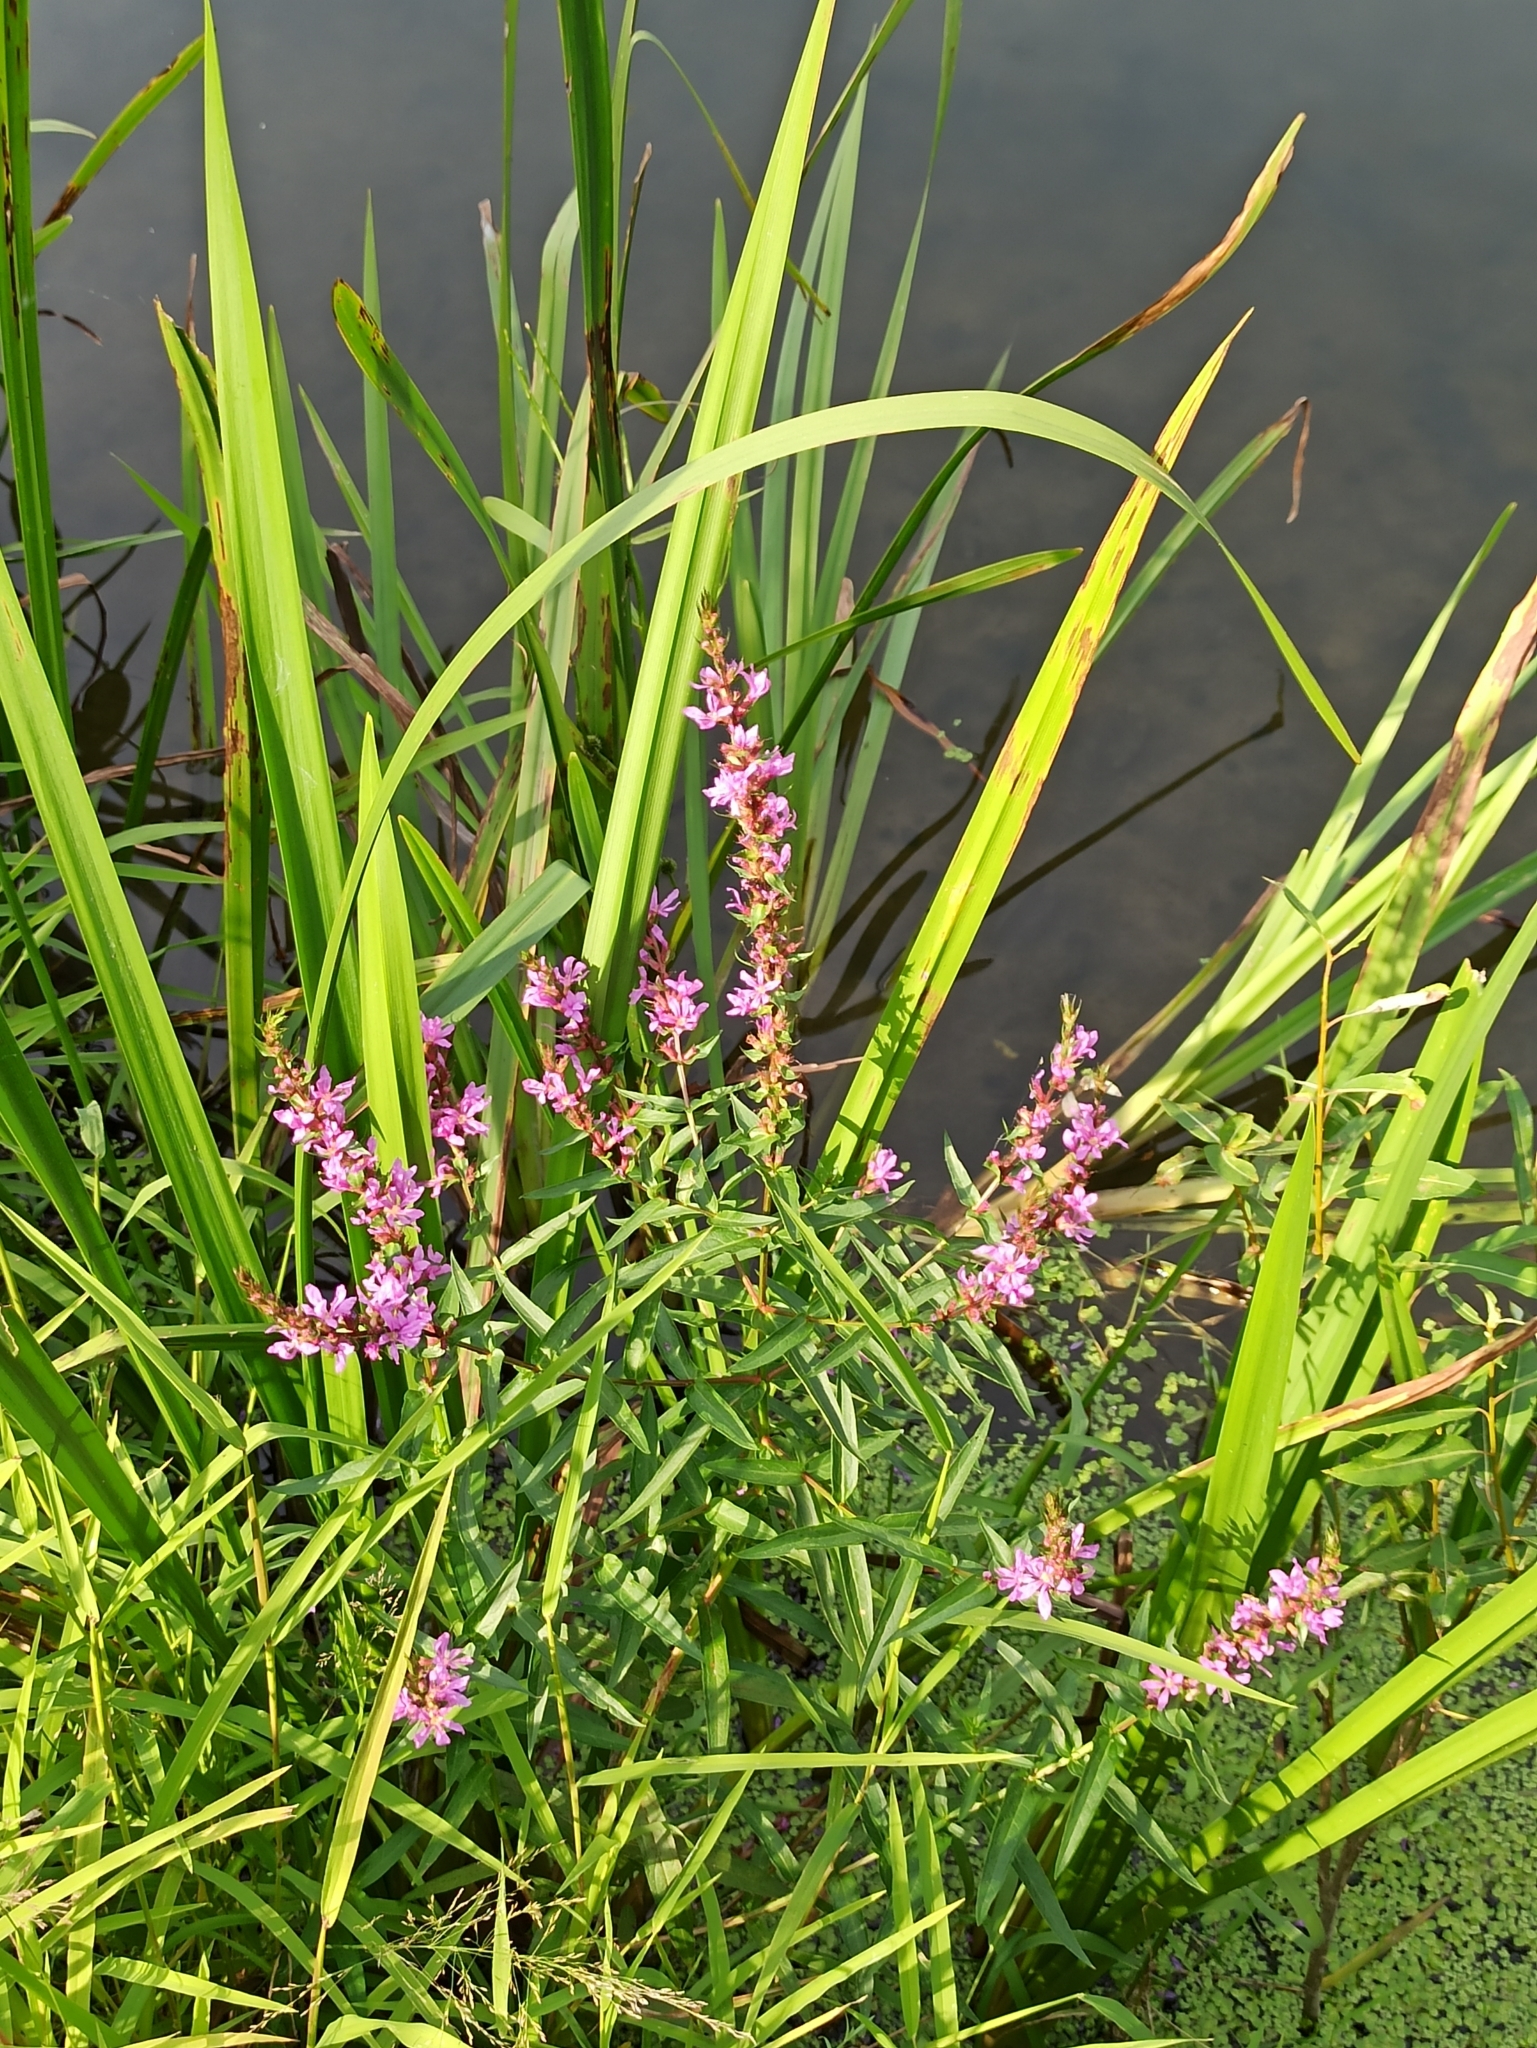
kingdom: Plantae
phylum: Tracheophyta
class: Magnoliopsida
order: Myrtales
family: Lythraceae
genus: Lythrum
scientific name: Lythrum salicaria
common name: Purple loosestrife
